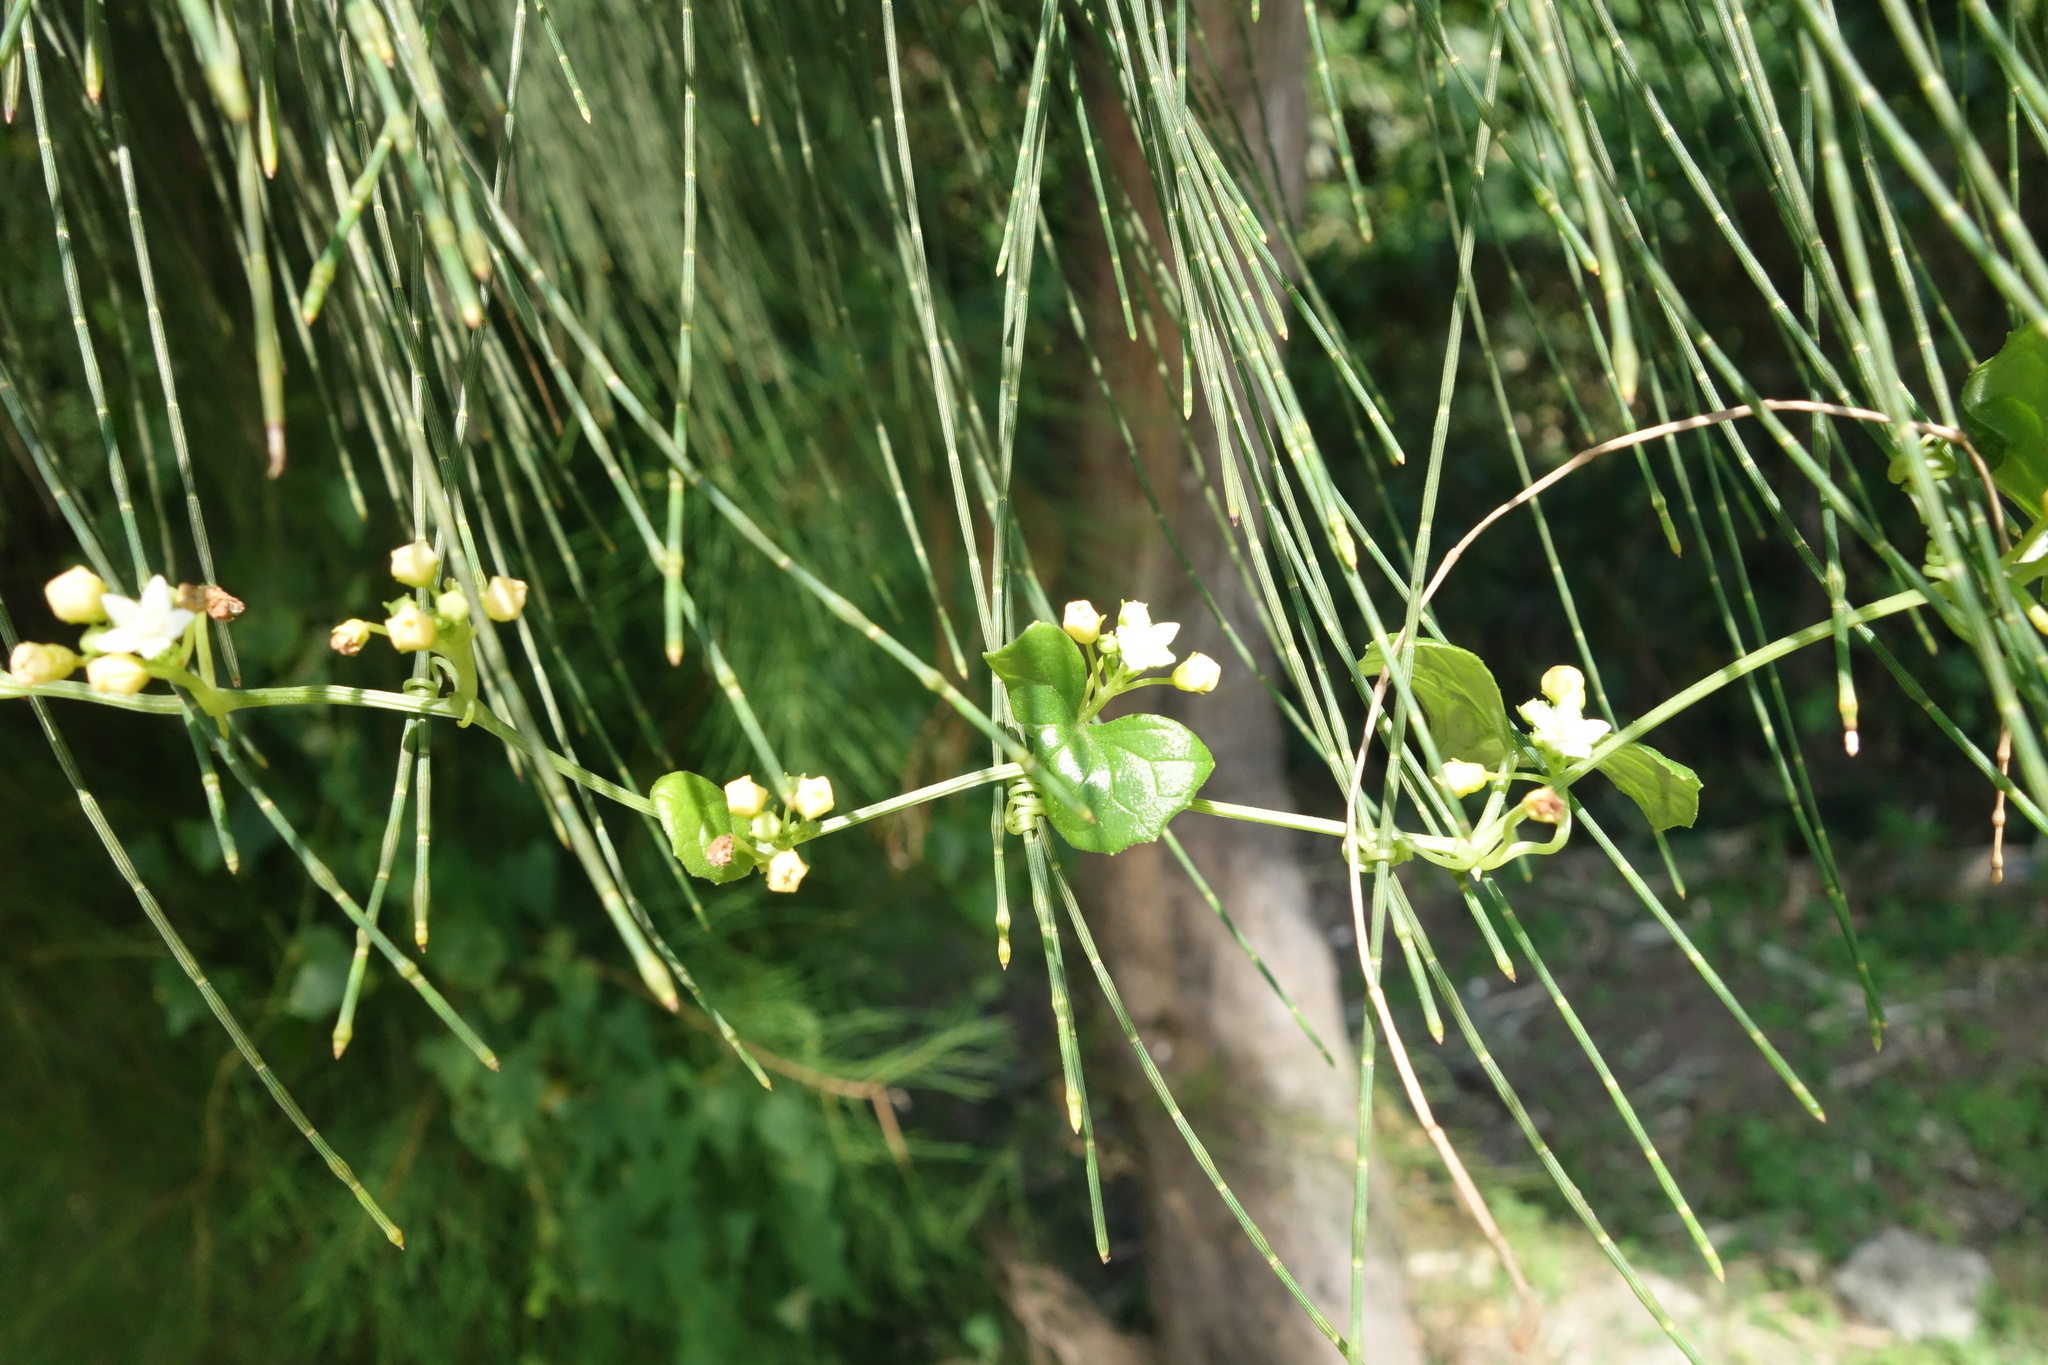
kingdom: Plantae
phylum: Tracheophyta
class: Magnoliopsida
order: Cucurbitales
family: Cucurbitaceae
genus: Zehneria
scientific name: Zehneria guamensis
